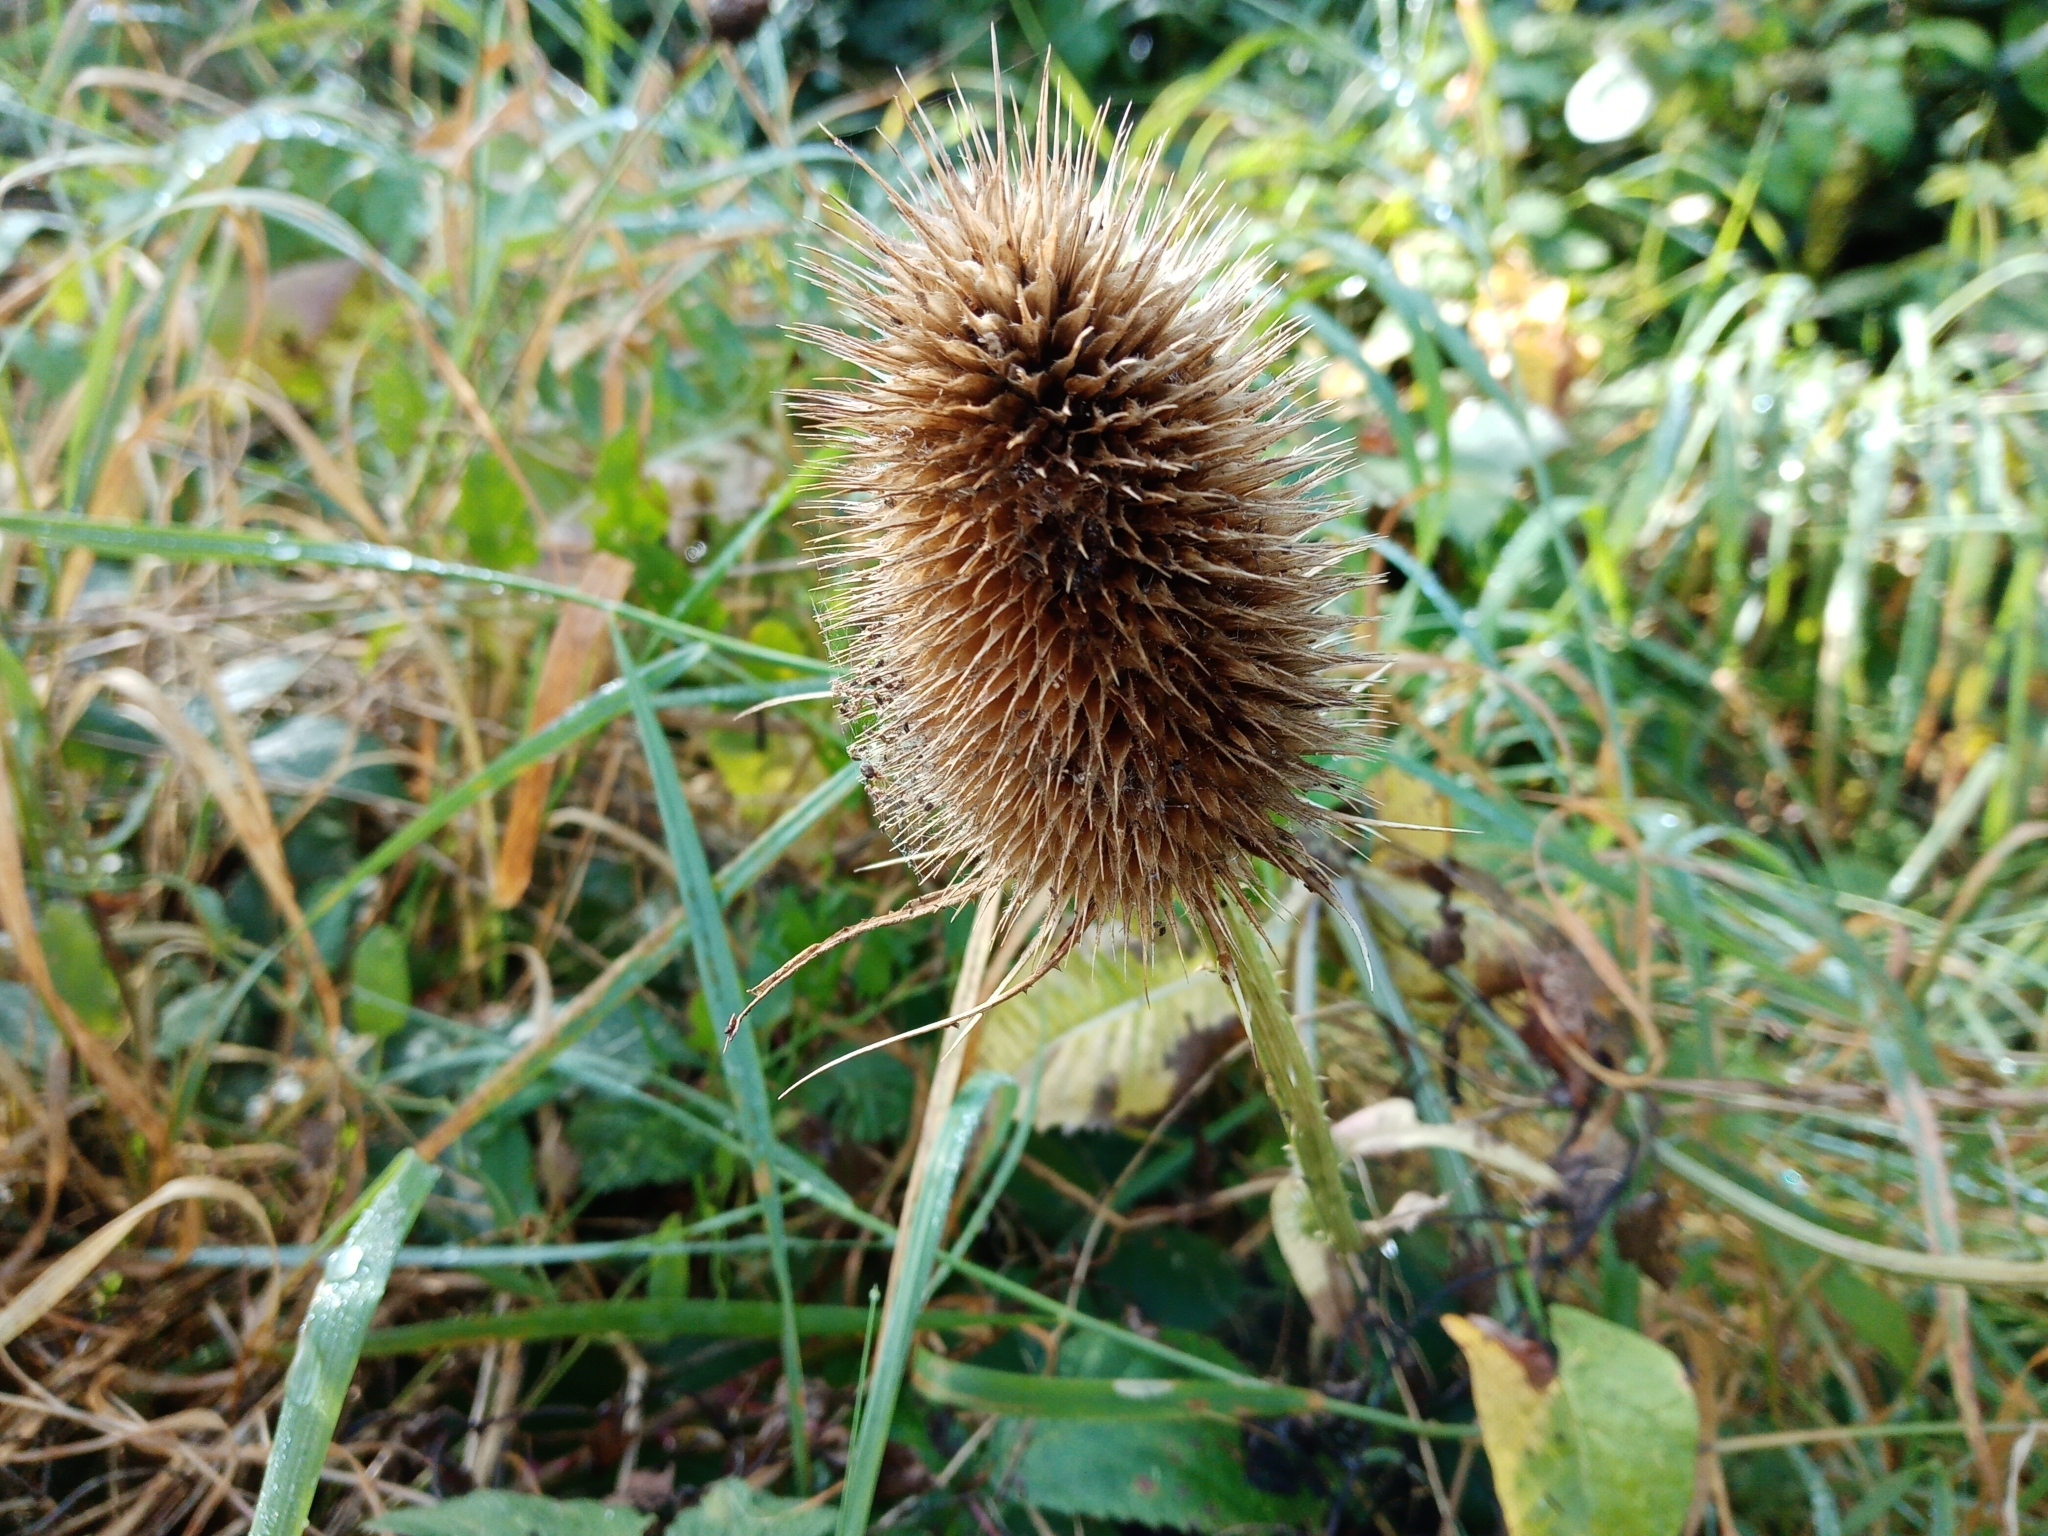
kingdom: Plantae
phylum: Tracheophyta
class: Magnoliopsida
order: Dipsacales
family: Caprifoliaceae
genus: Dipsacus
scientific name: Dipsacus fullonum
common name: Teasel
